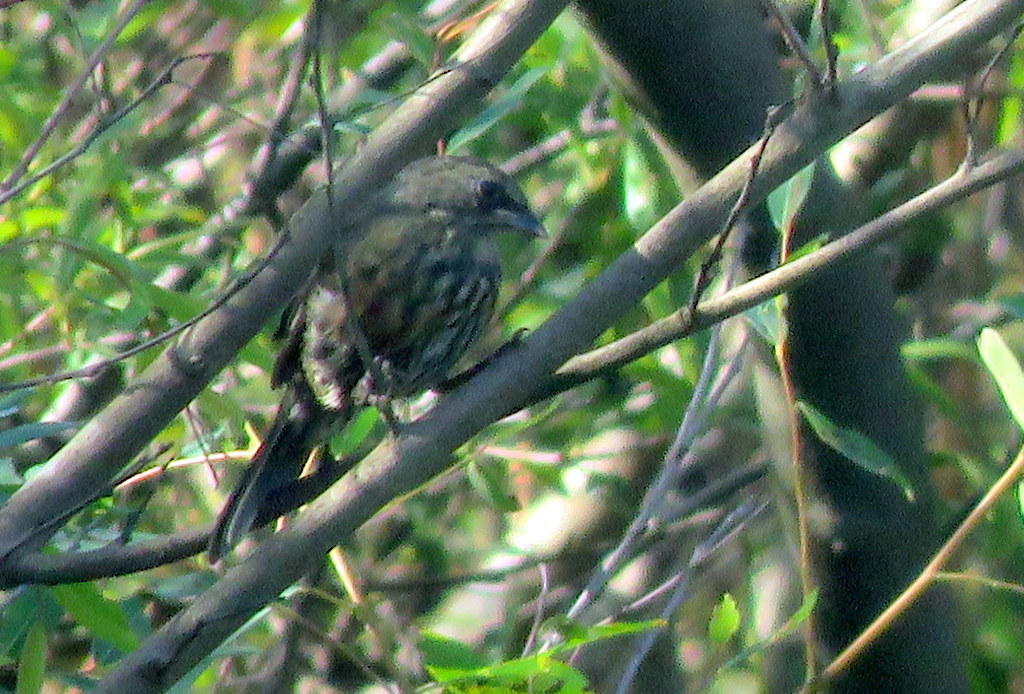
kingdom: Animalia
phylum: Chordata
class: Aves
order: Passeriformes
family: Thraupidae
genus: Poospiza
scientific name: Poospiza nigrorufa
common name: Black-and-rufous warbling finch
